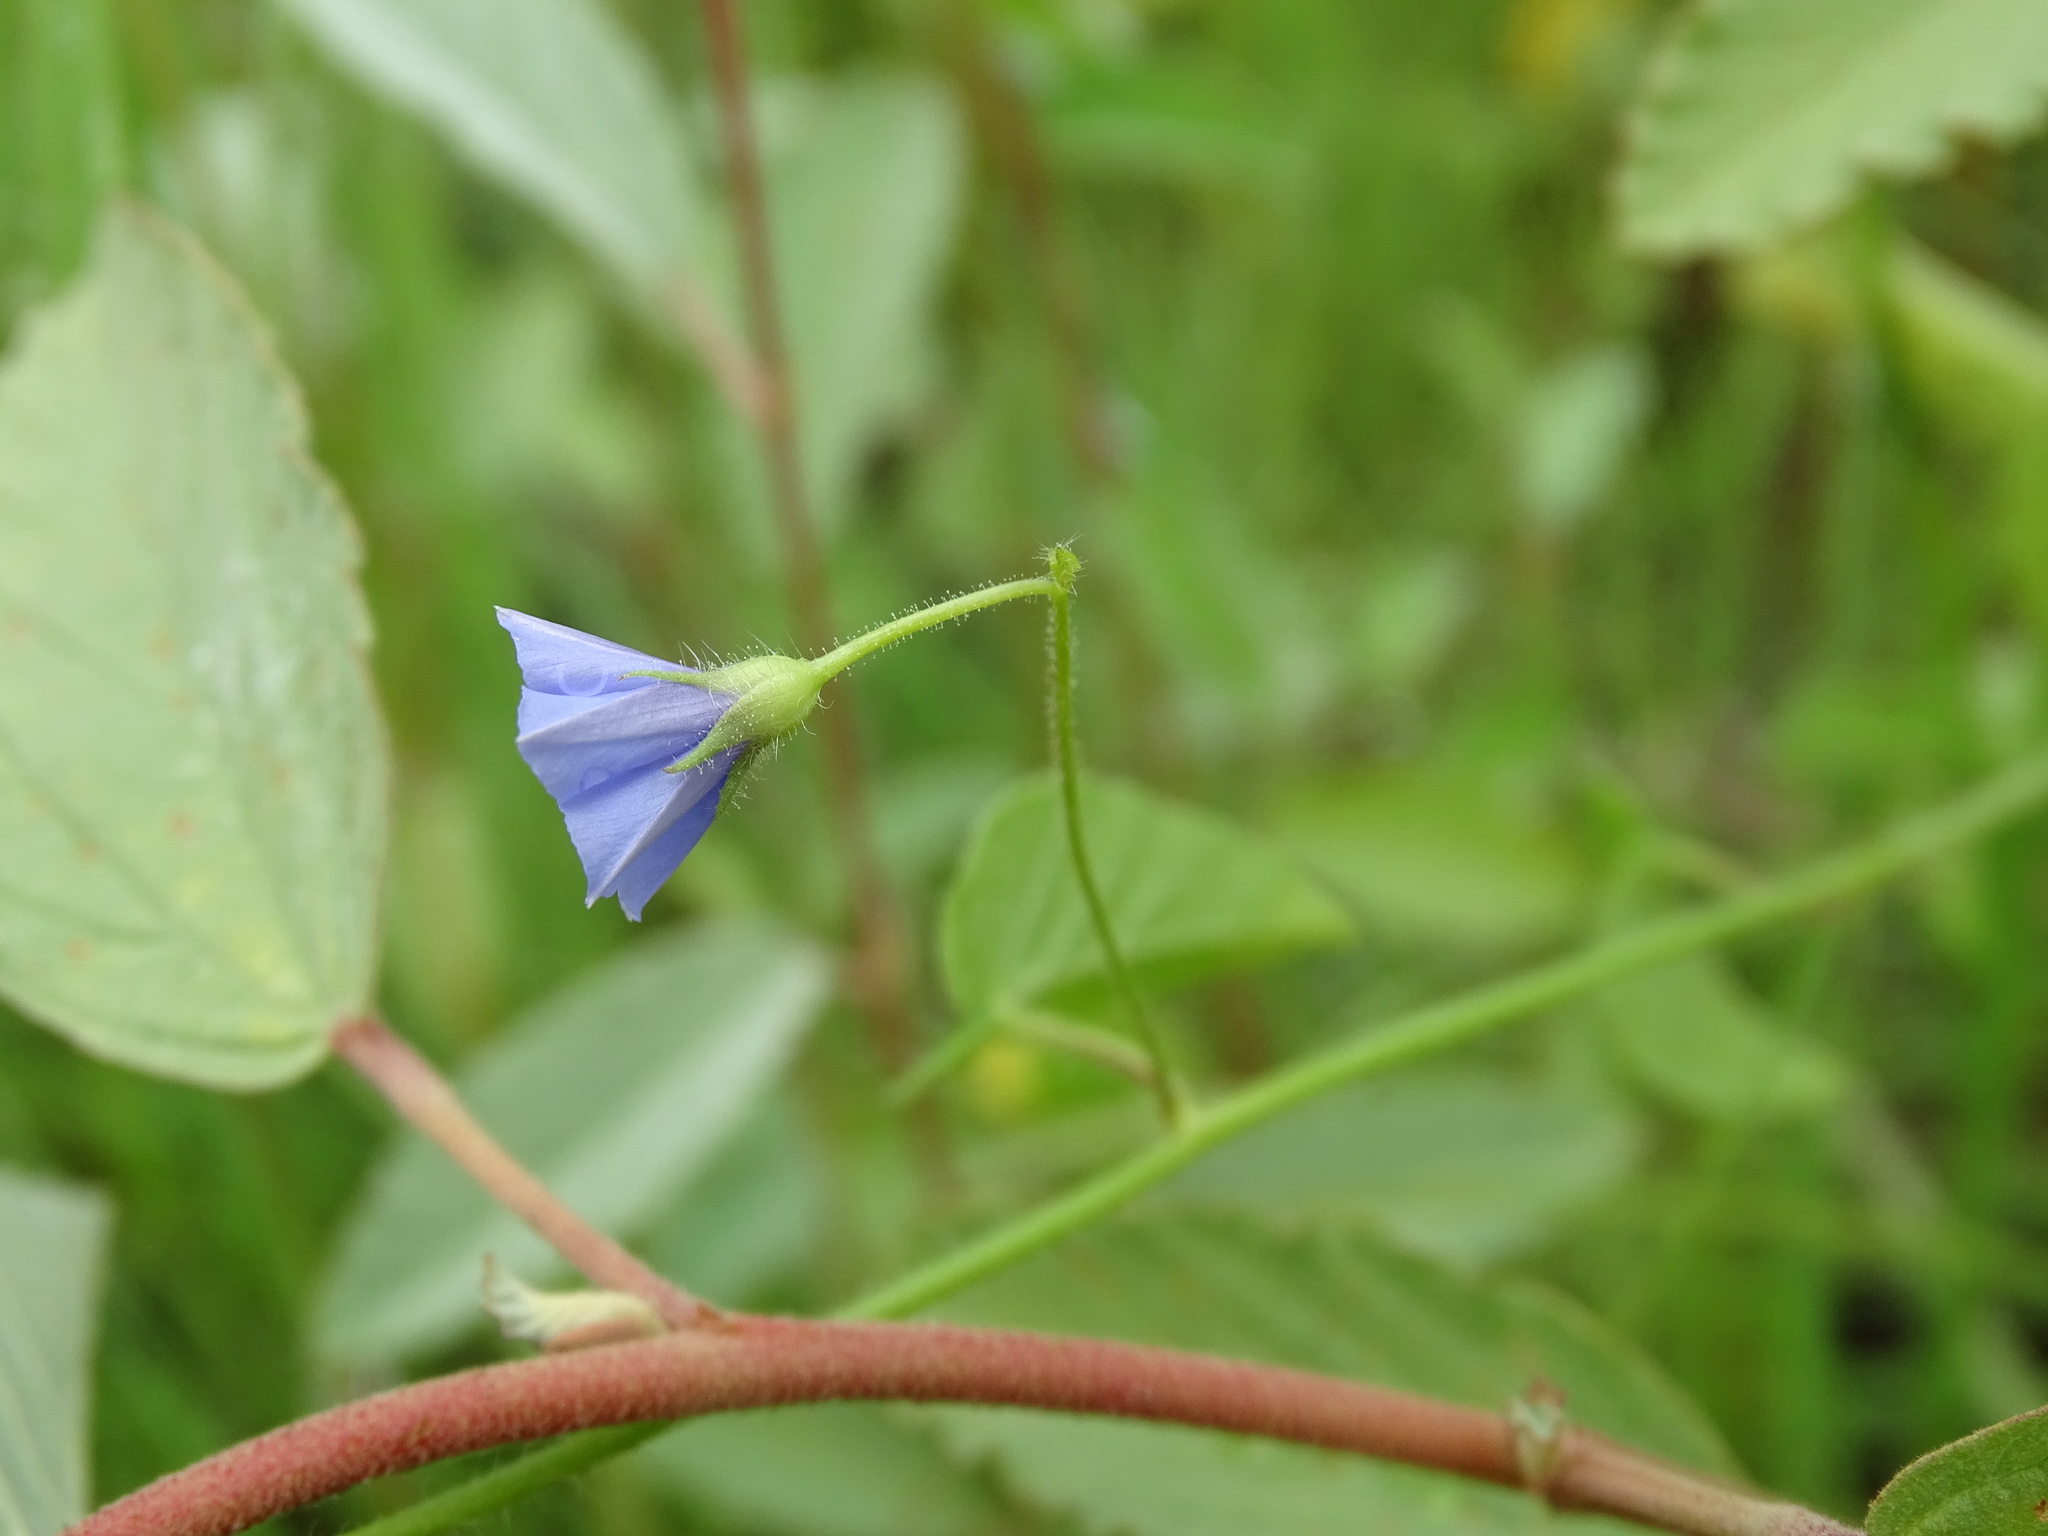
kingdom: Plantae
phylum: Tracheophyta
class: Magnoliopsida
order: Solanales
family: Convolvulaceae
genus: Jacquemontia
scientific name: Jacquemontia evolvuloides
